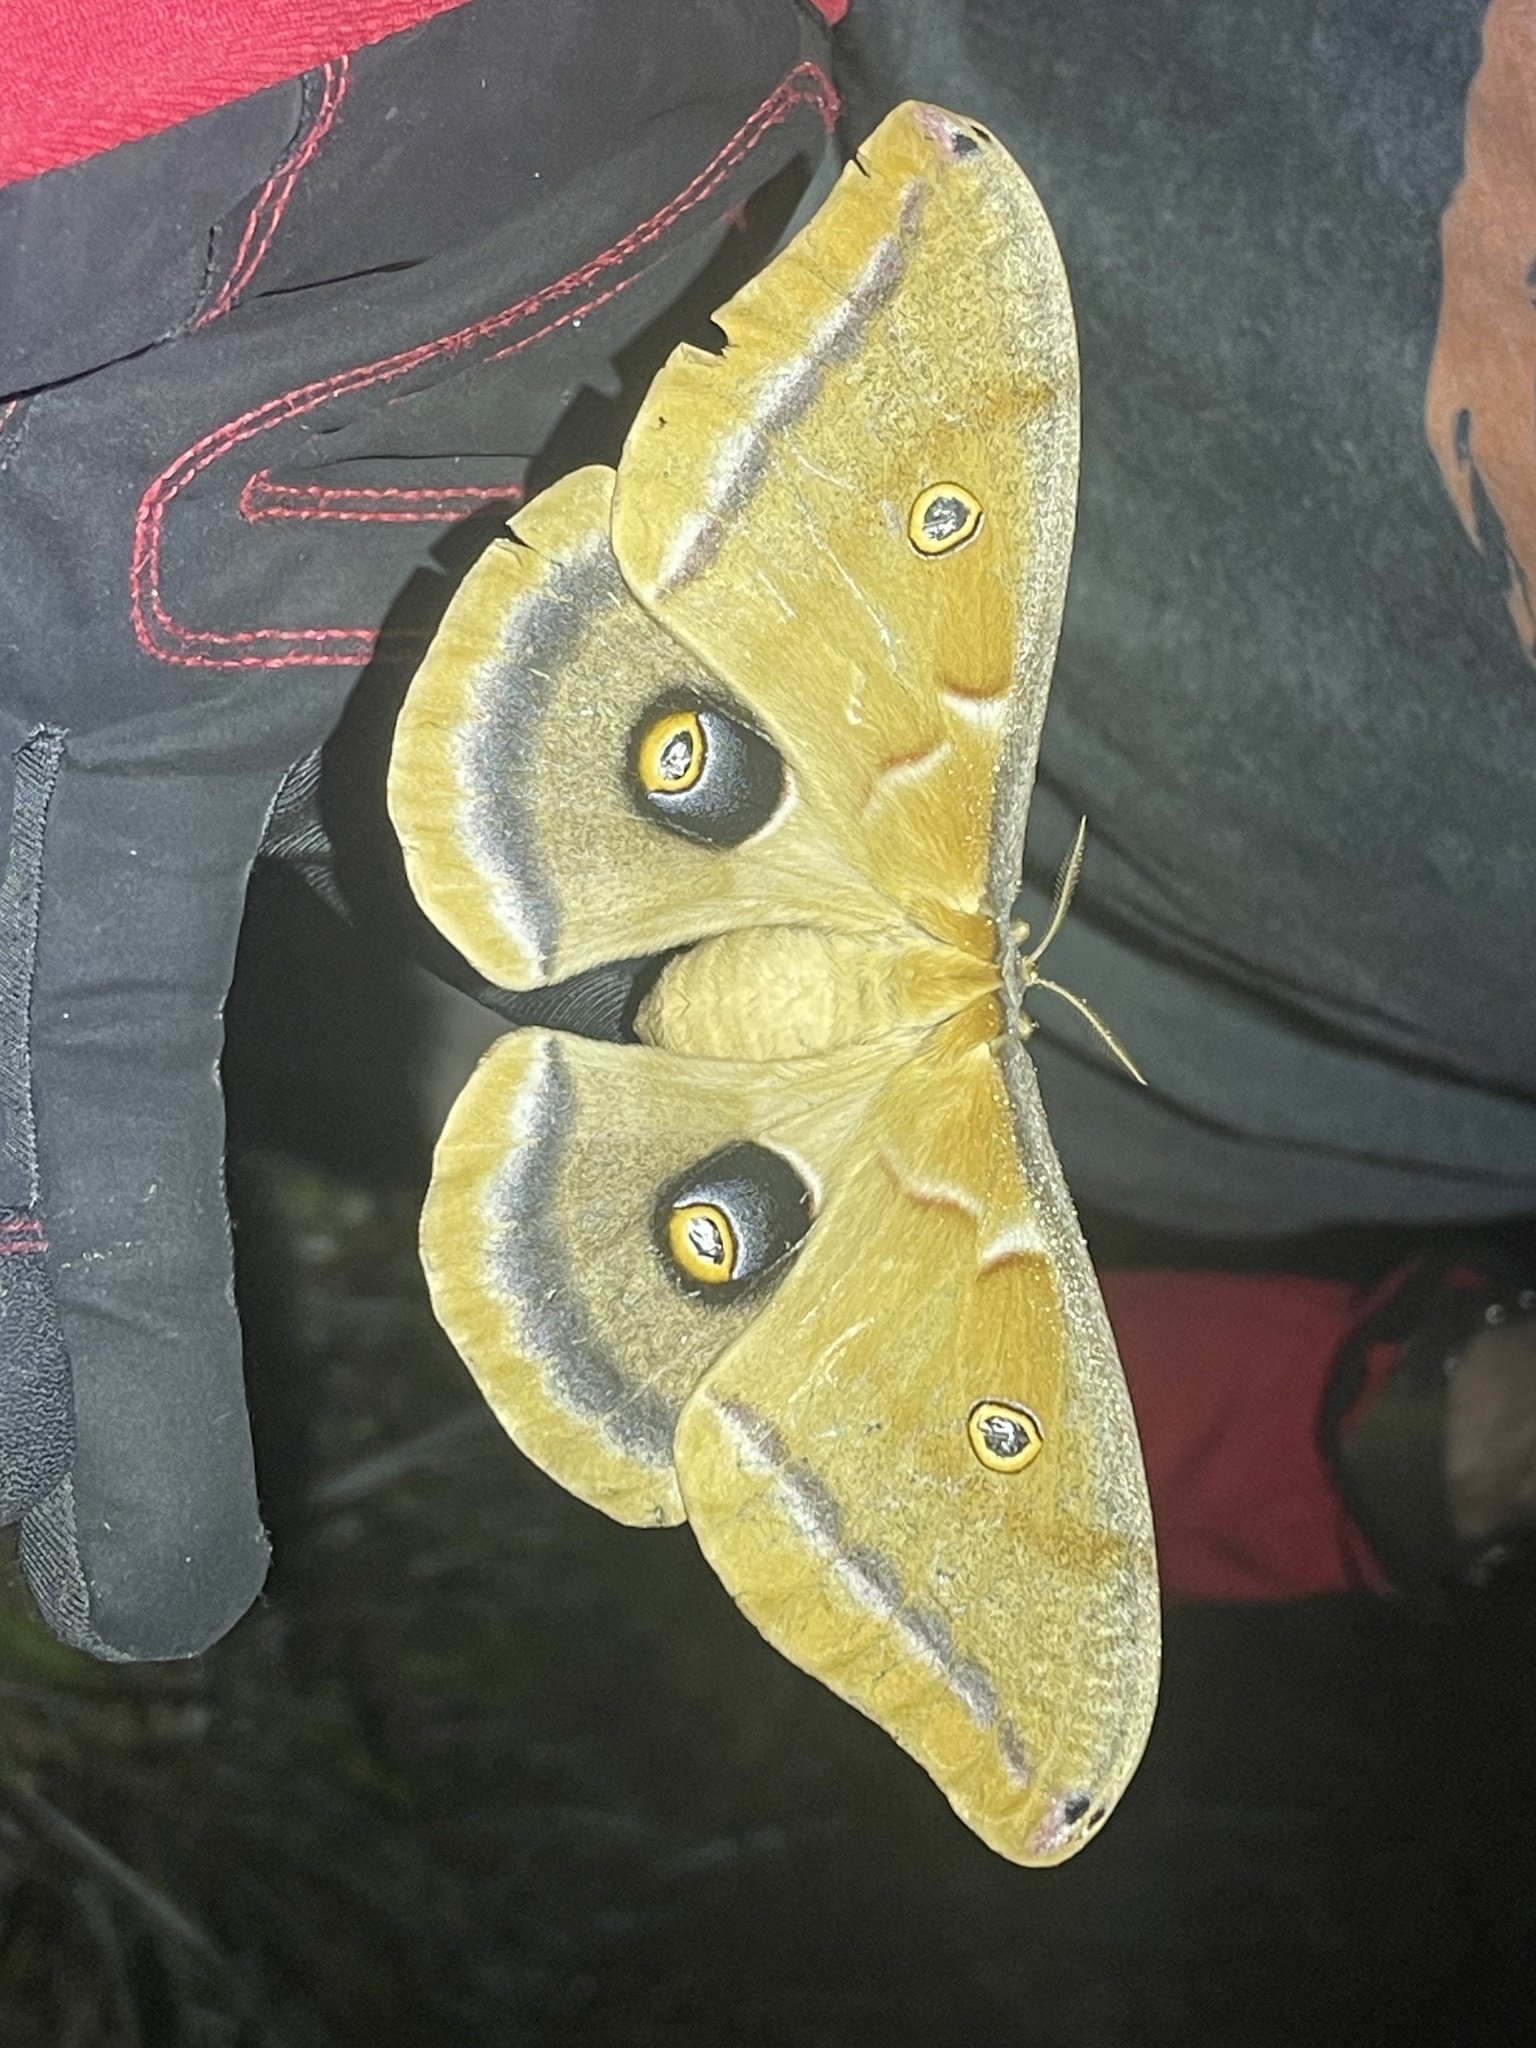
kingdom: Animalia
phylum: Arthropoda
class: Insecta
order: Lepidoptera
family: Saturniidae
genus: Antheraea
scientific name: Antheraea polyphemus
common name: Polyphemus moth
